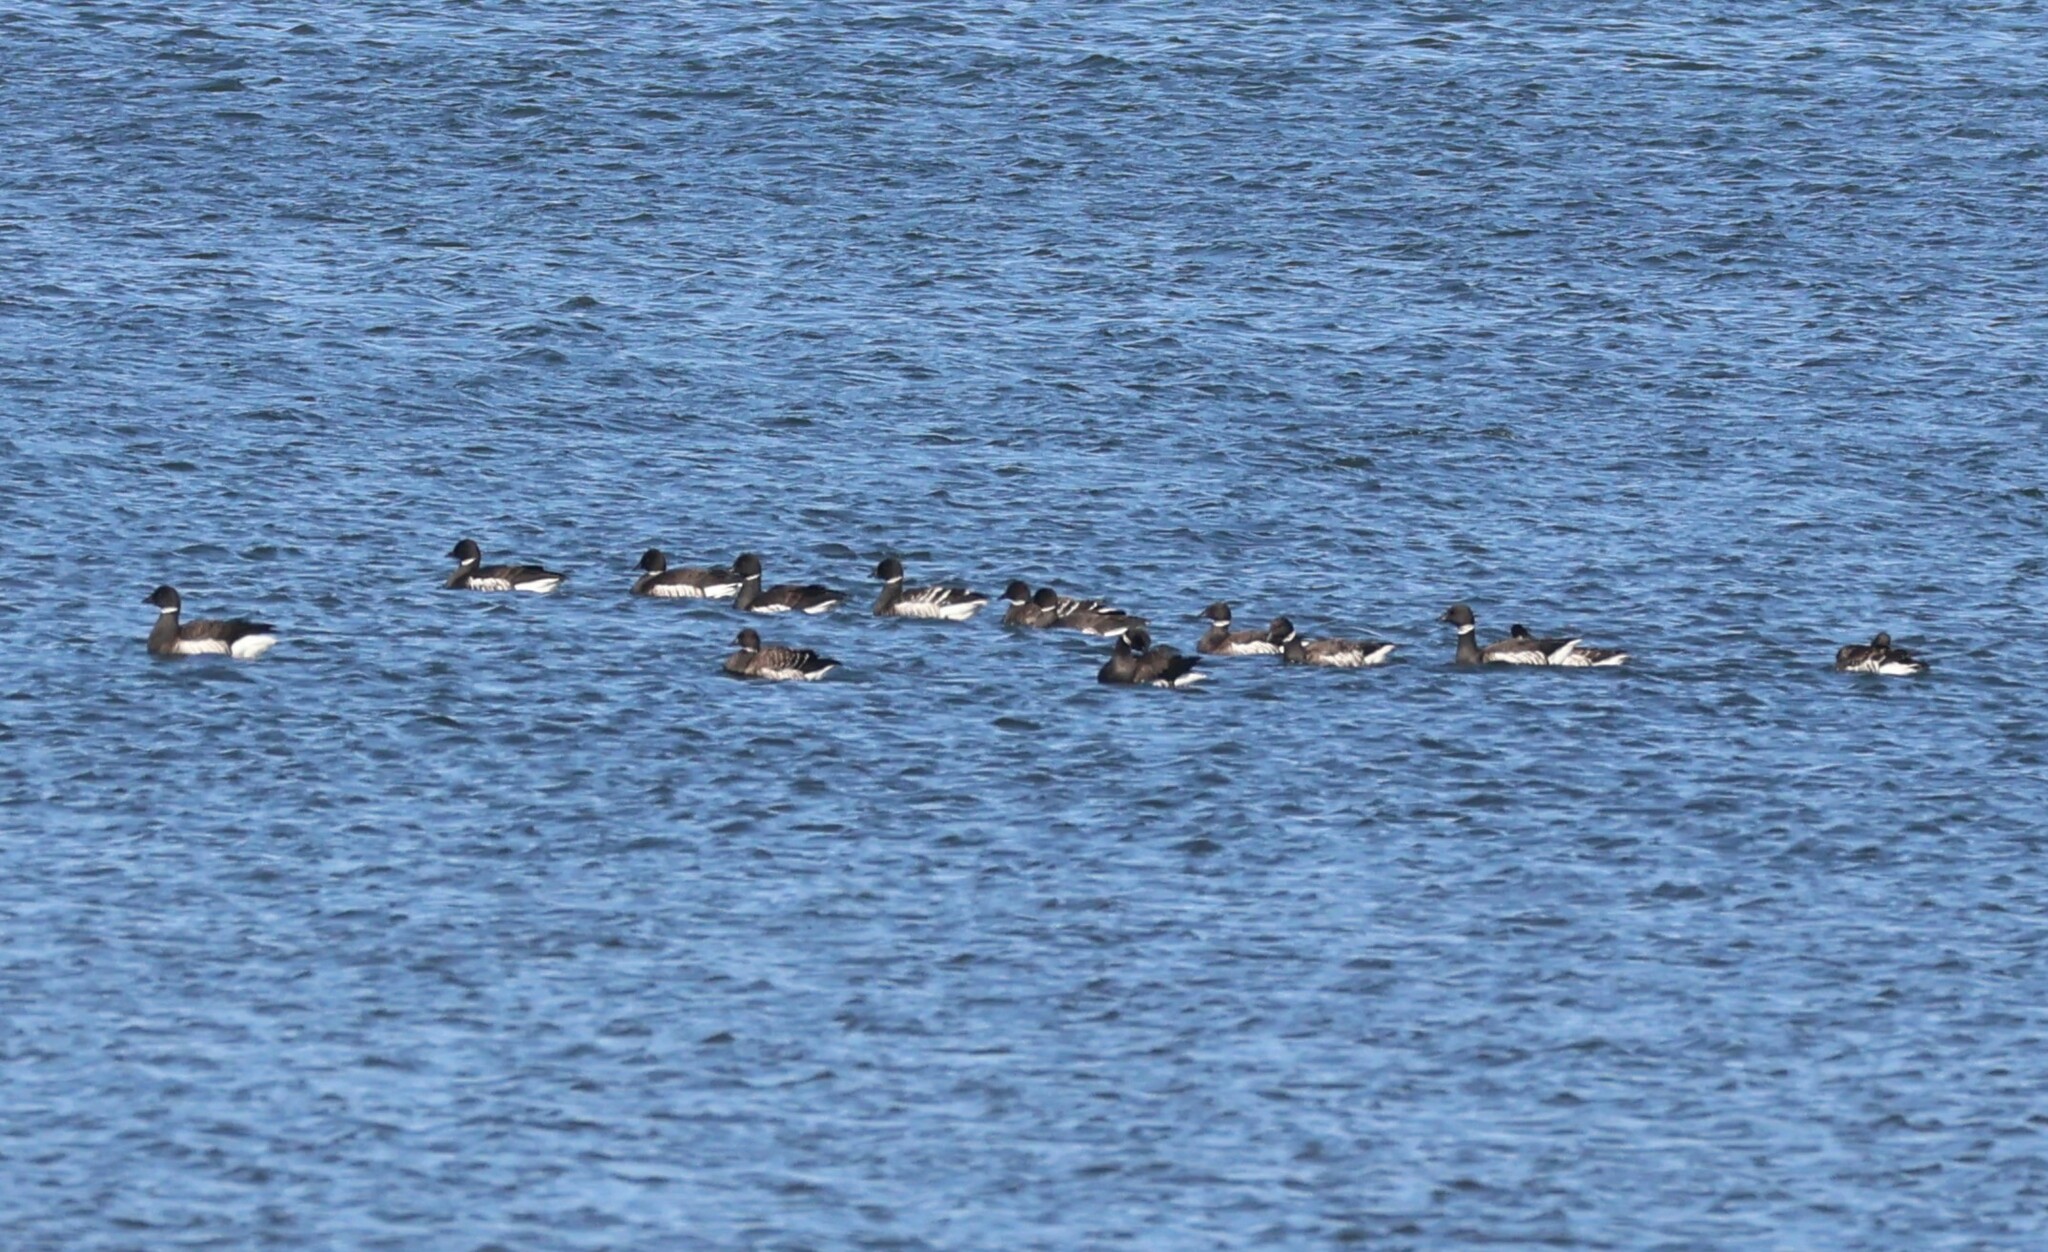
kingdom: Animalia
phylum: Chordata
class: Aves
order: Anseriformes
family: Anatidae
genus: Branta
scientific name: Branta bernicla
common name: Brant goose
